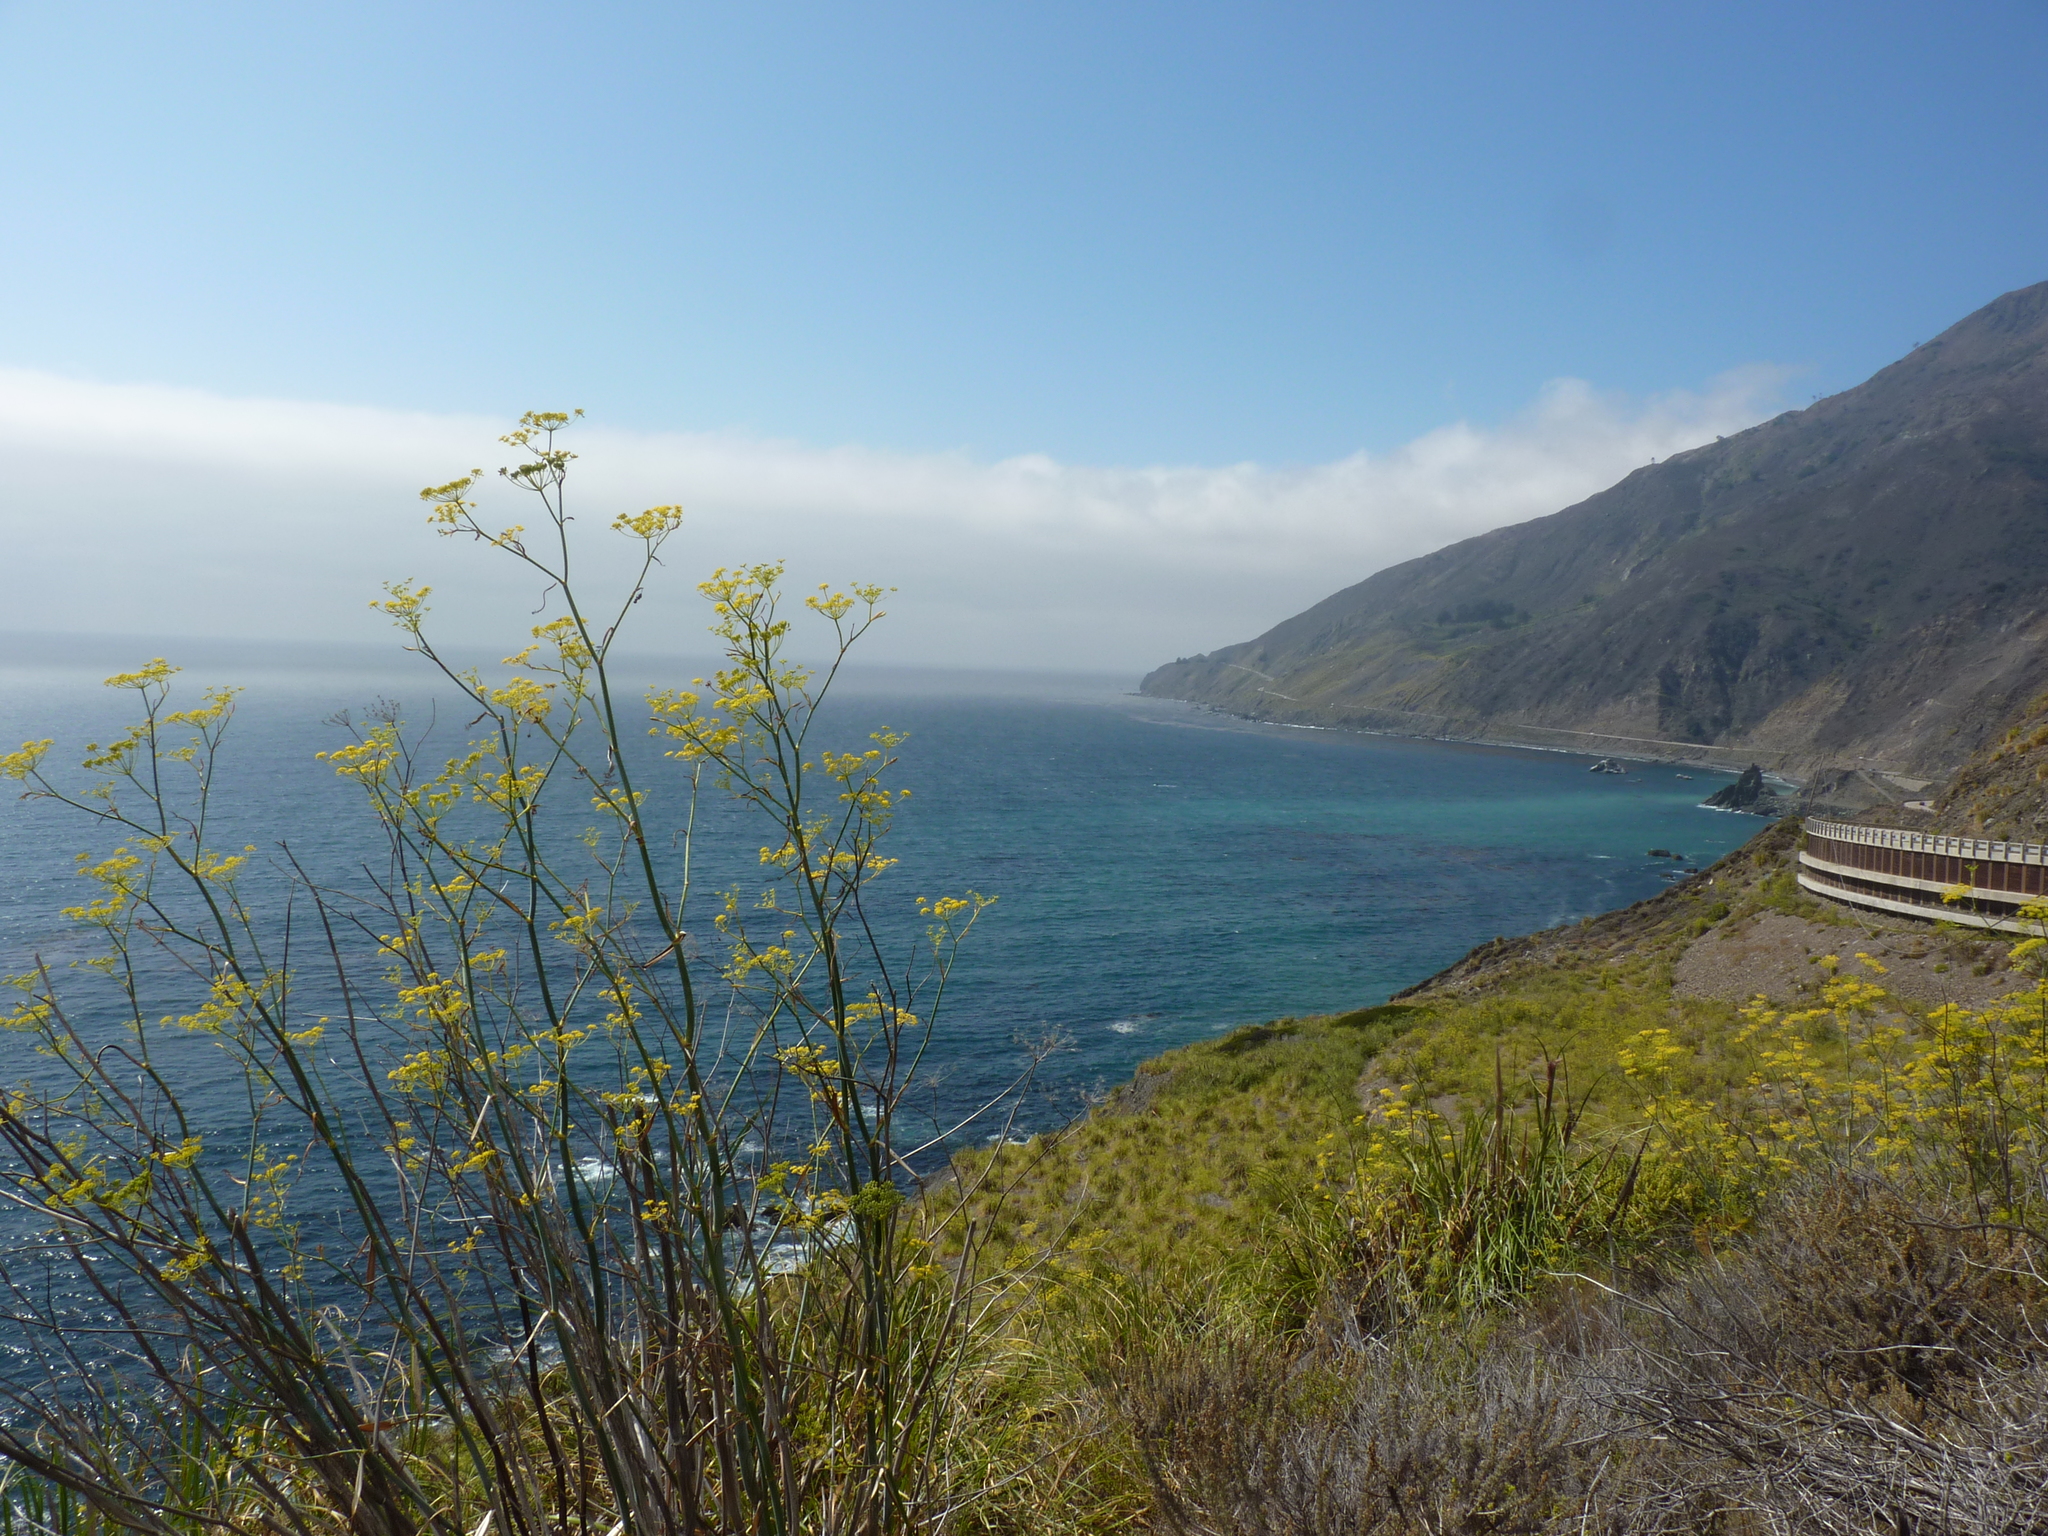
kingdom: Plantae
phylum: Tracheophyta
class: Magnoliopsida
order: Apiales
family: Apiaceae
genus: Foeniculum
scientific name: Foeniculum vulgare
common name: Fennel
